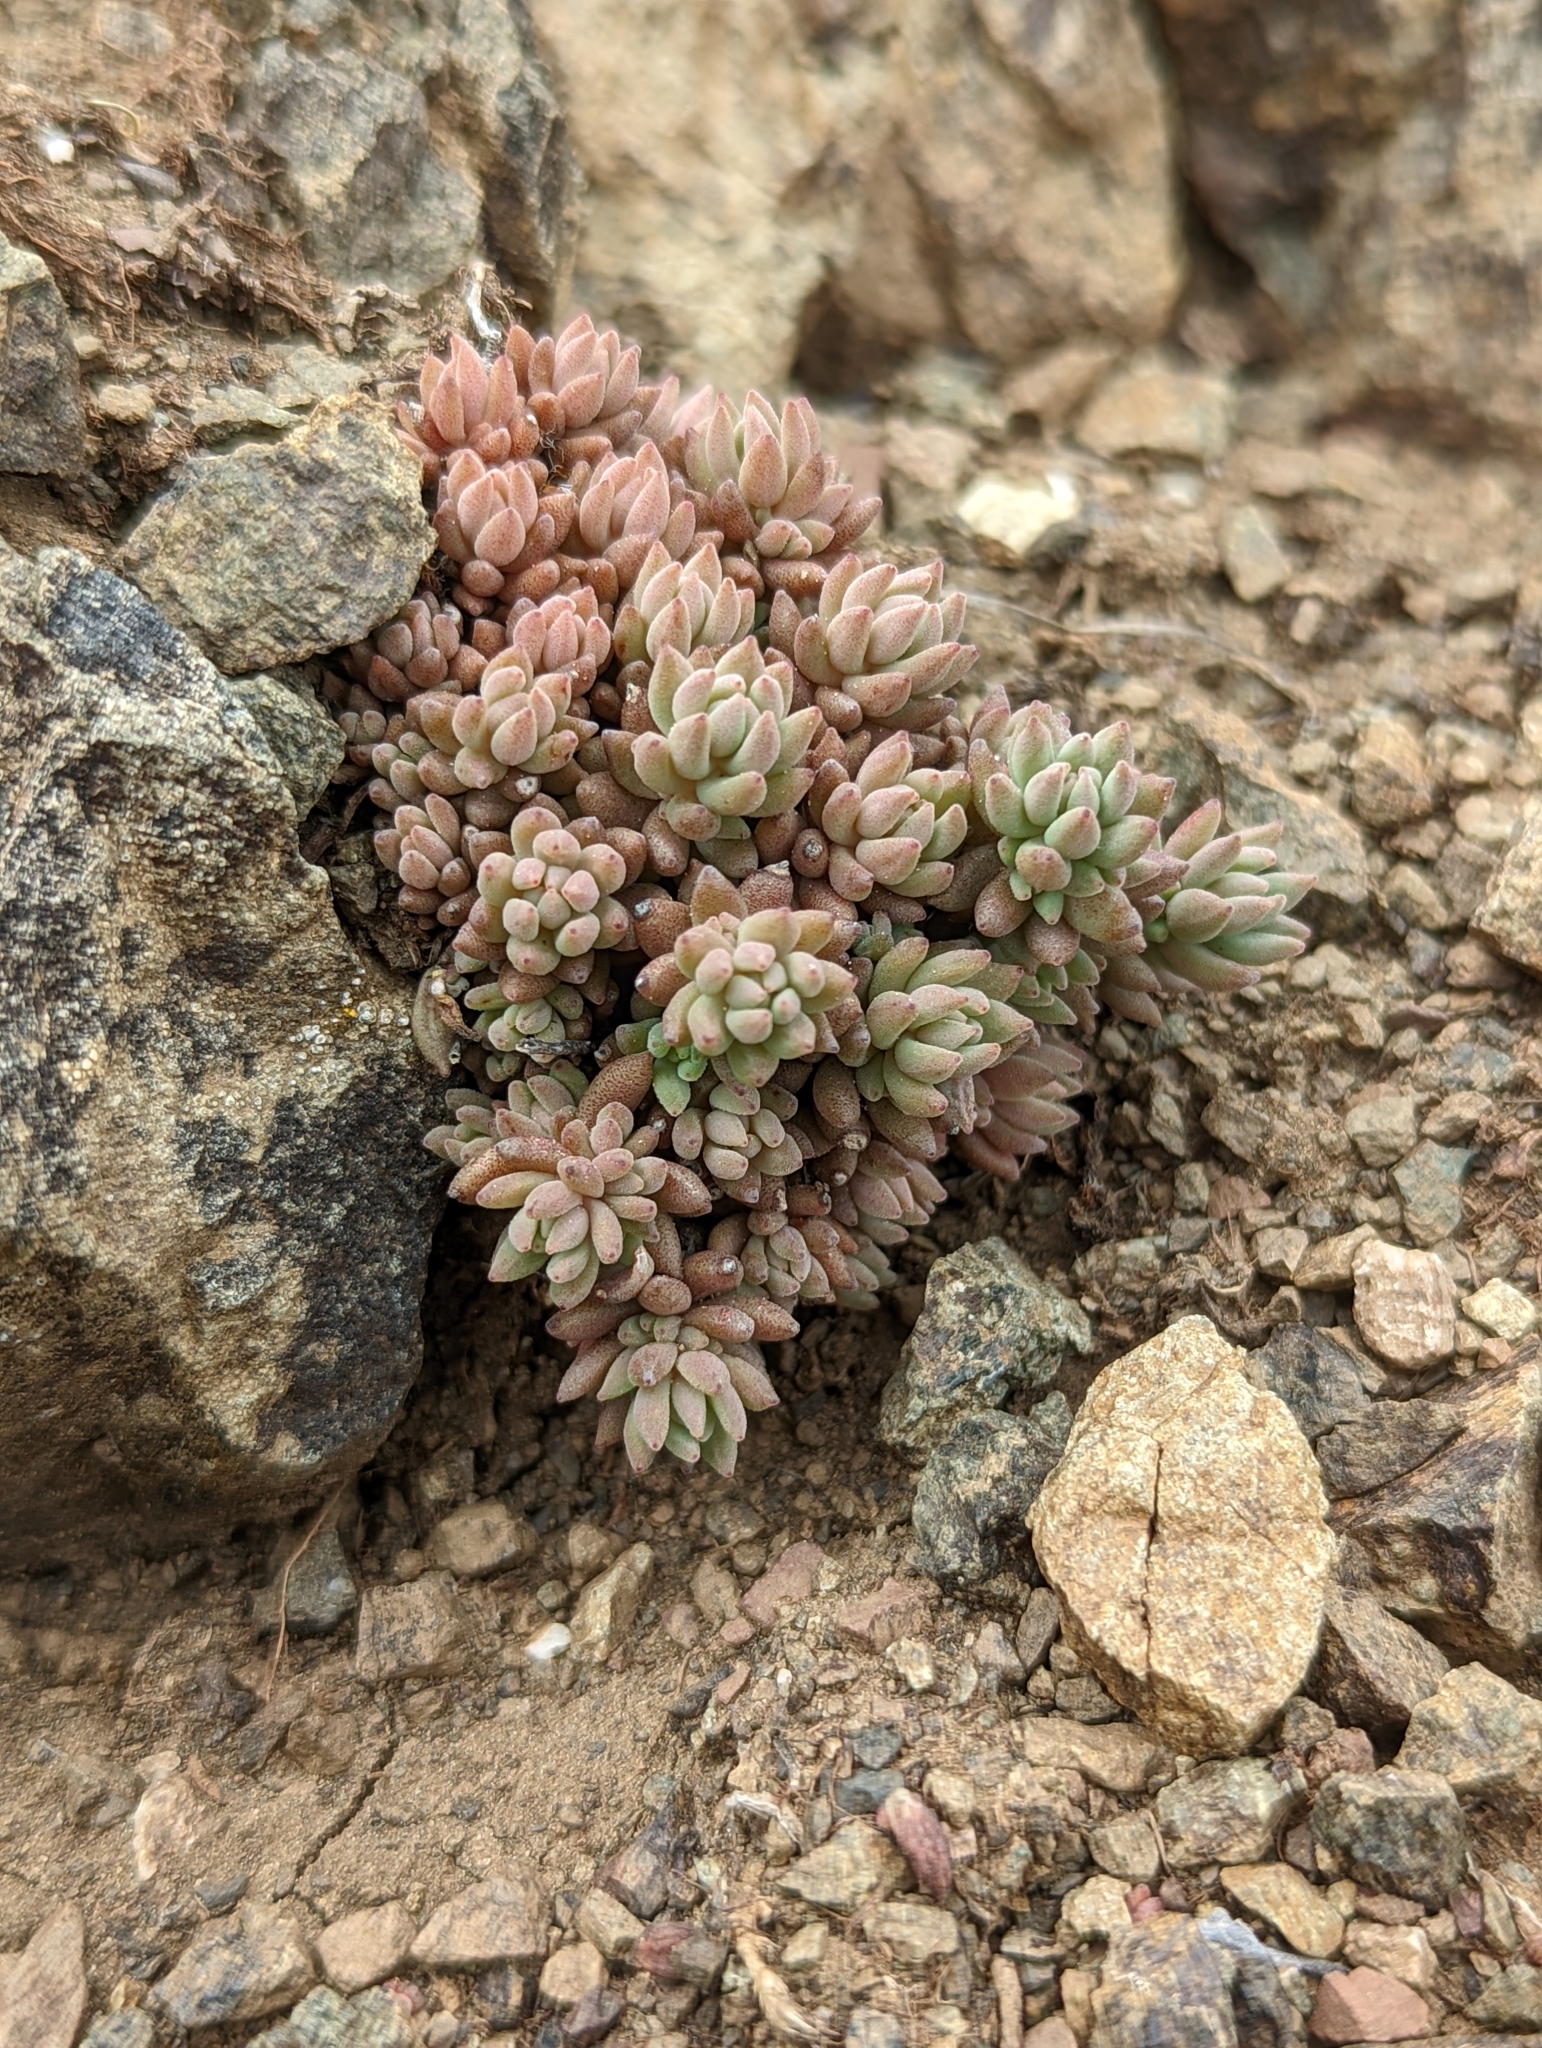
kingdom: Plantae
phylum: Tracheophyta
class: Magnoliopsida
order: Saxifragales
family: Crassulaceae
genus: Sedum
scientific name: Sedum lanceolatum
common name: Common stonecrop
